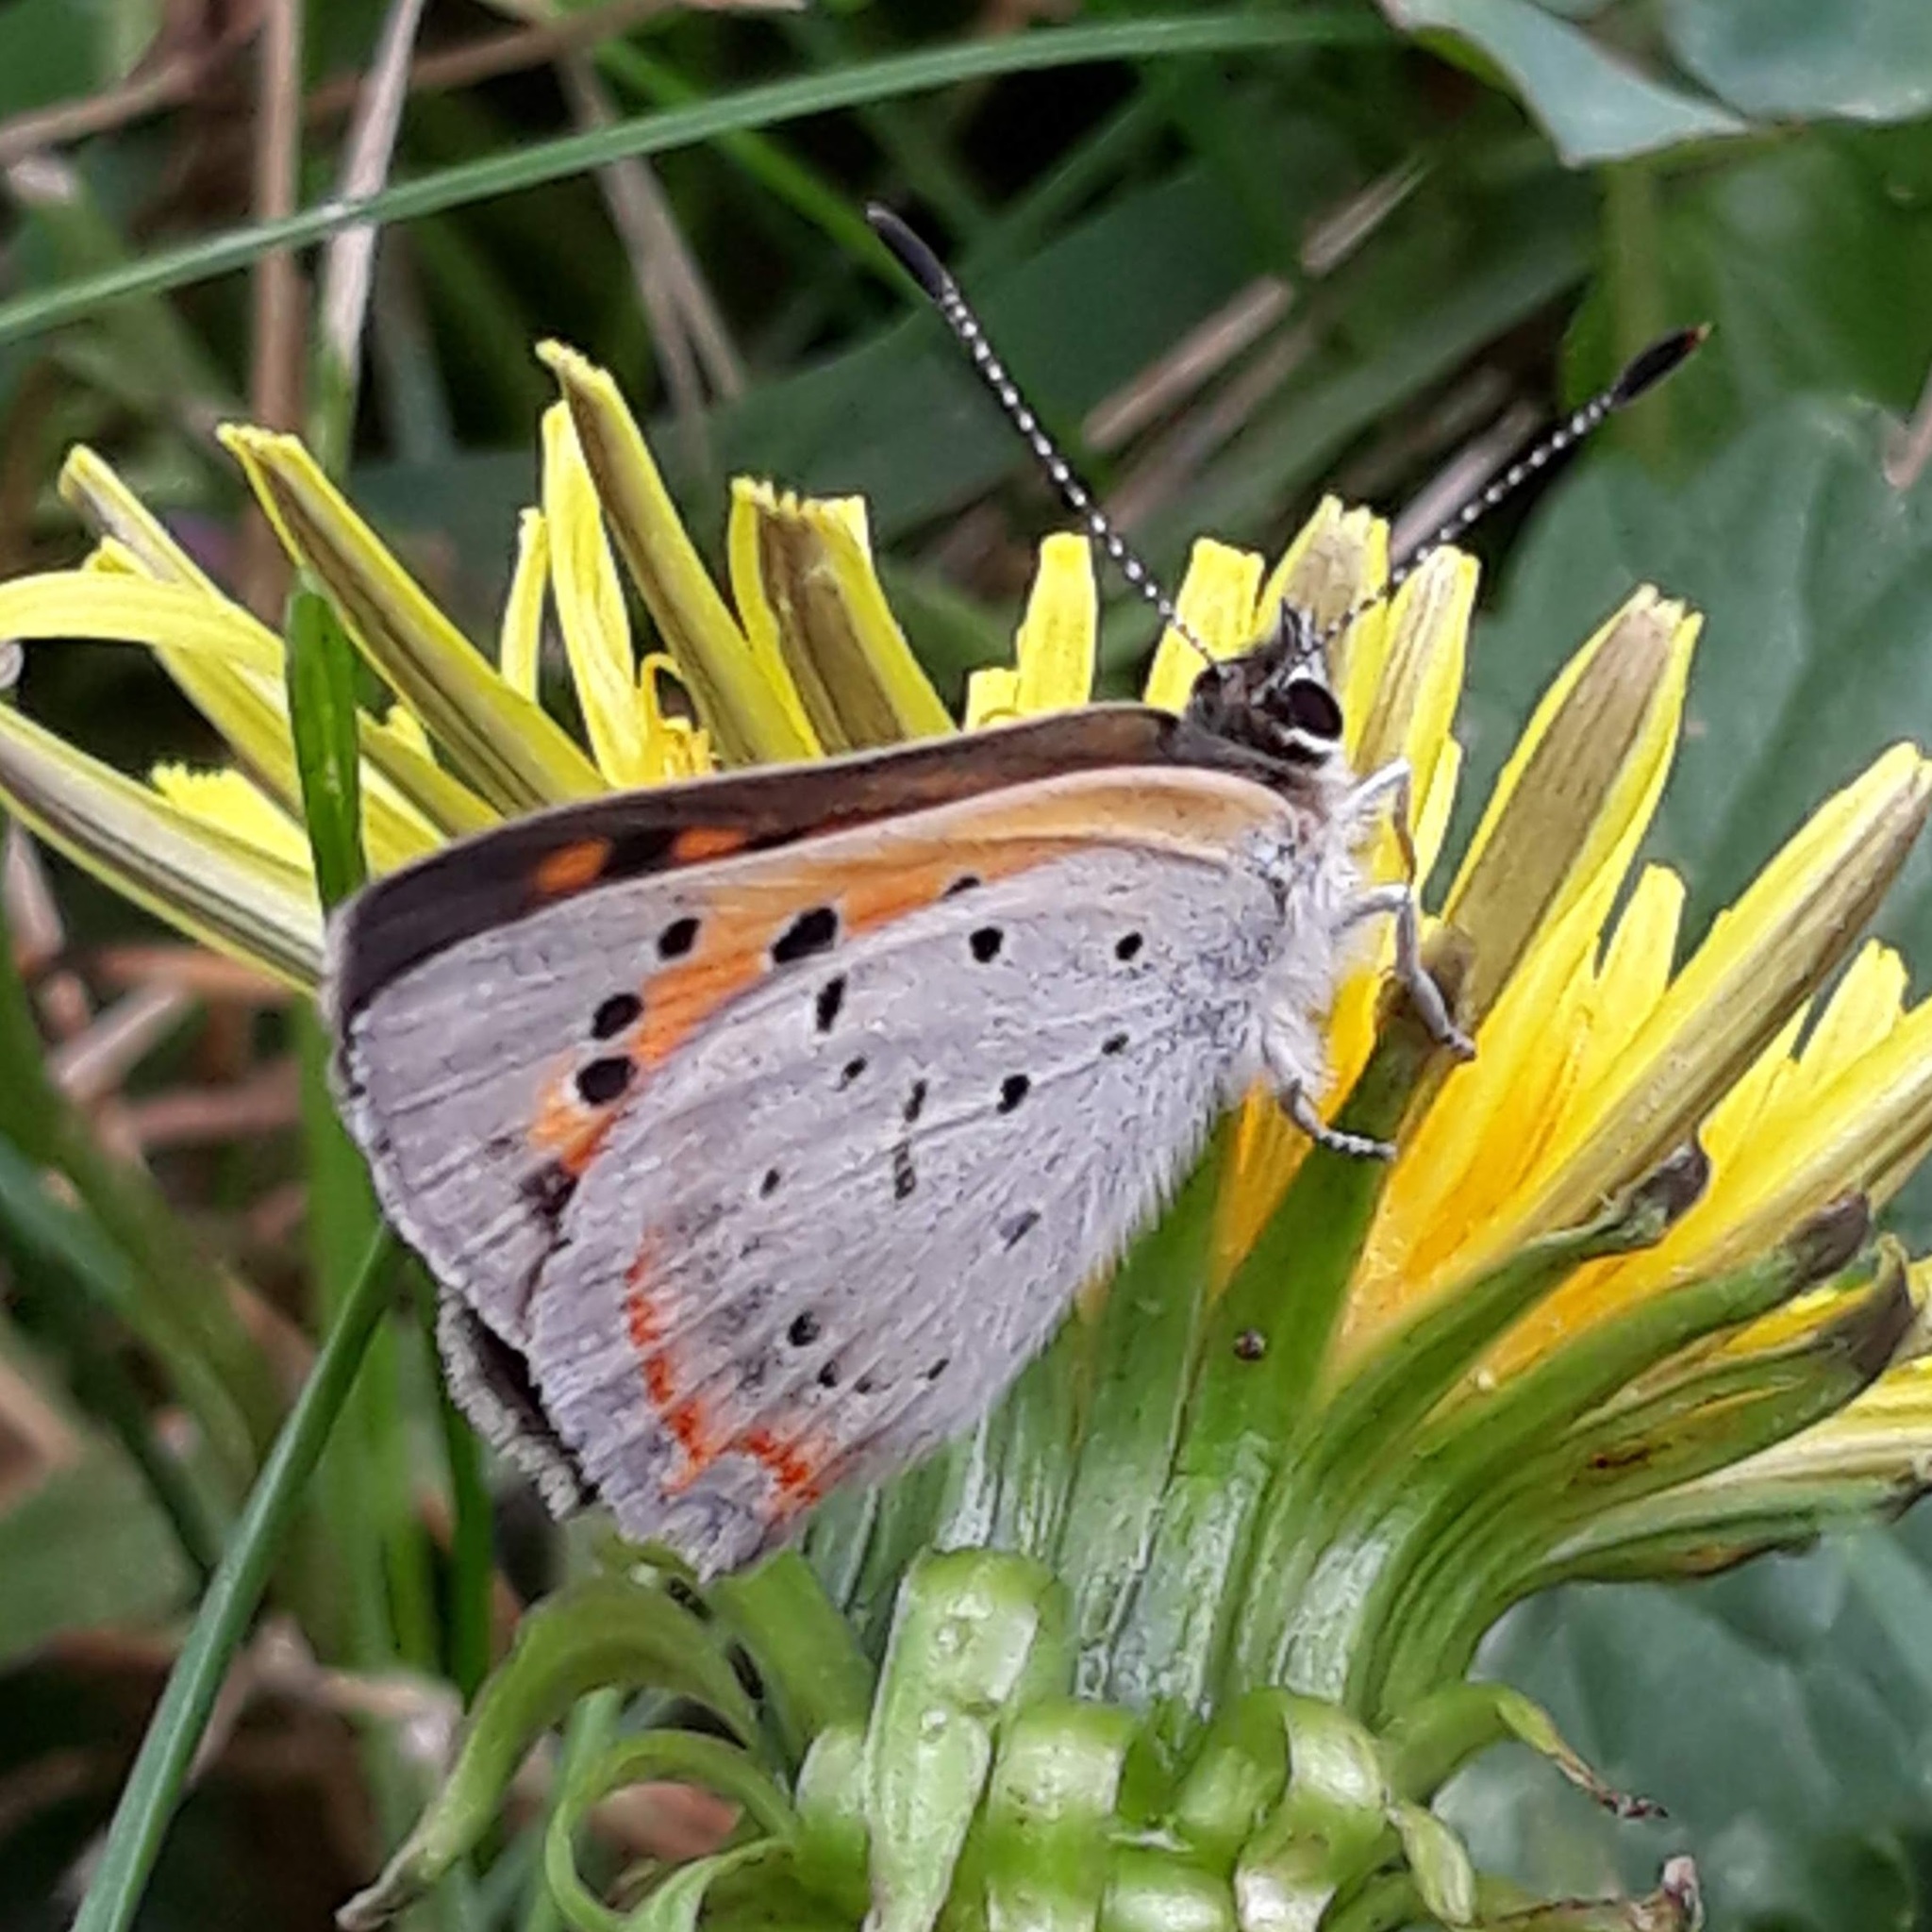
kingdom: Animalia
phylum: Arthropoda
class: Insecta
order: Lepidoptera
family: Lycaenidae
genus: Lycaena
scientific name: Lycaena hypophlaeas
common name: American copper
